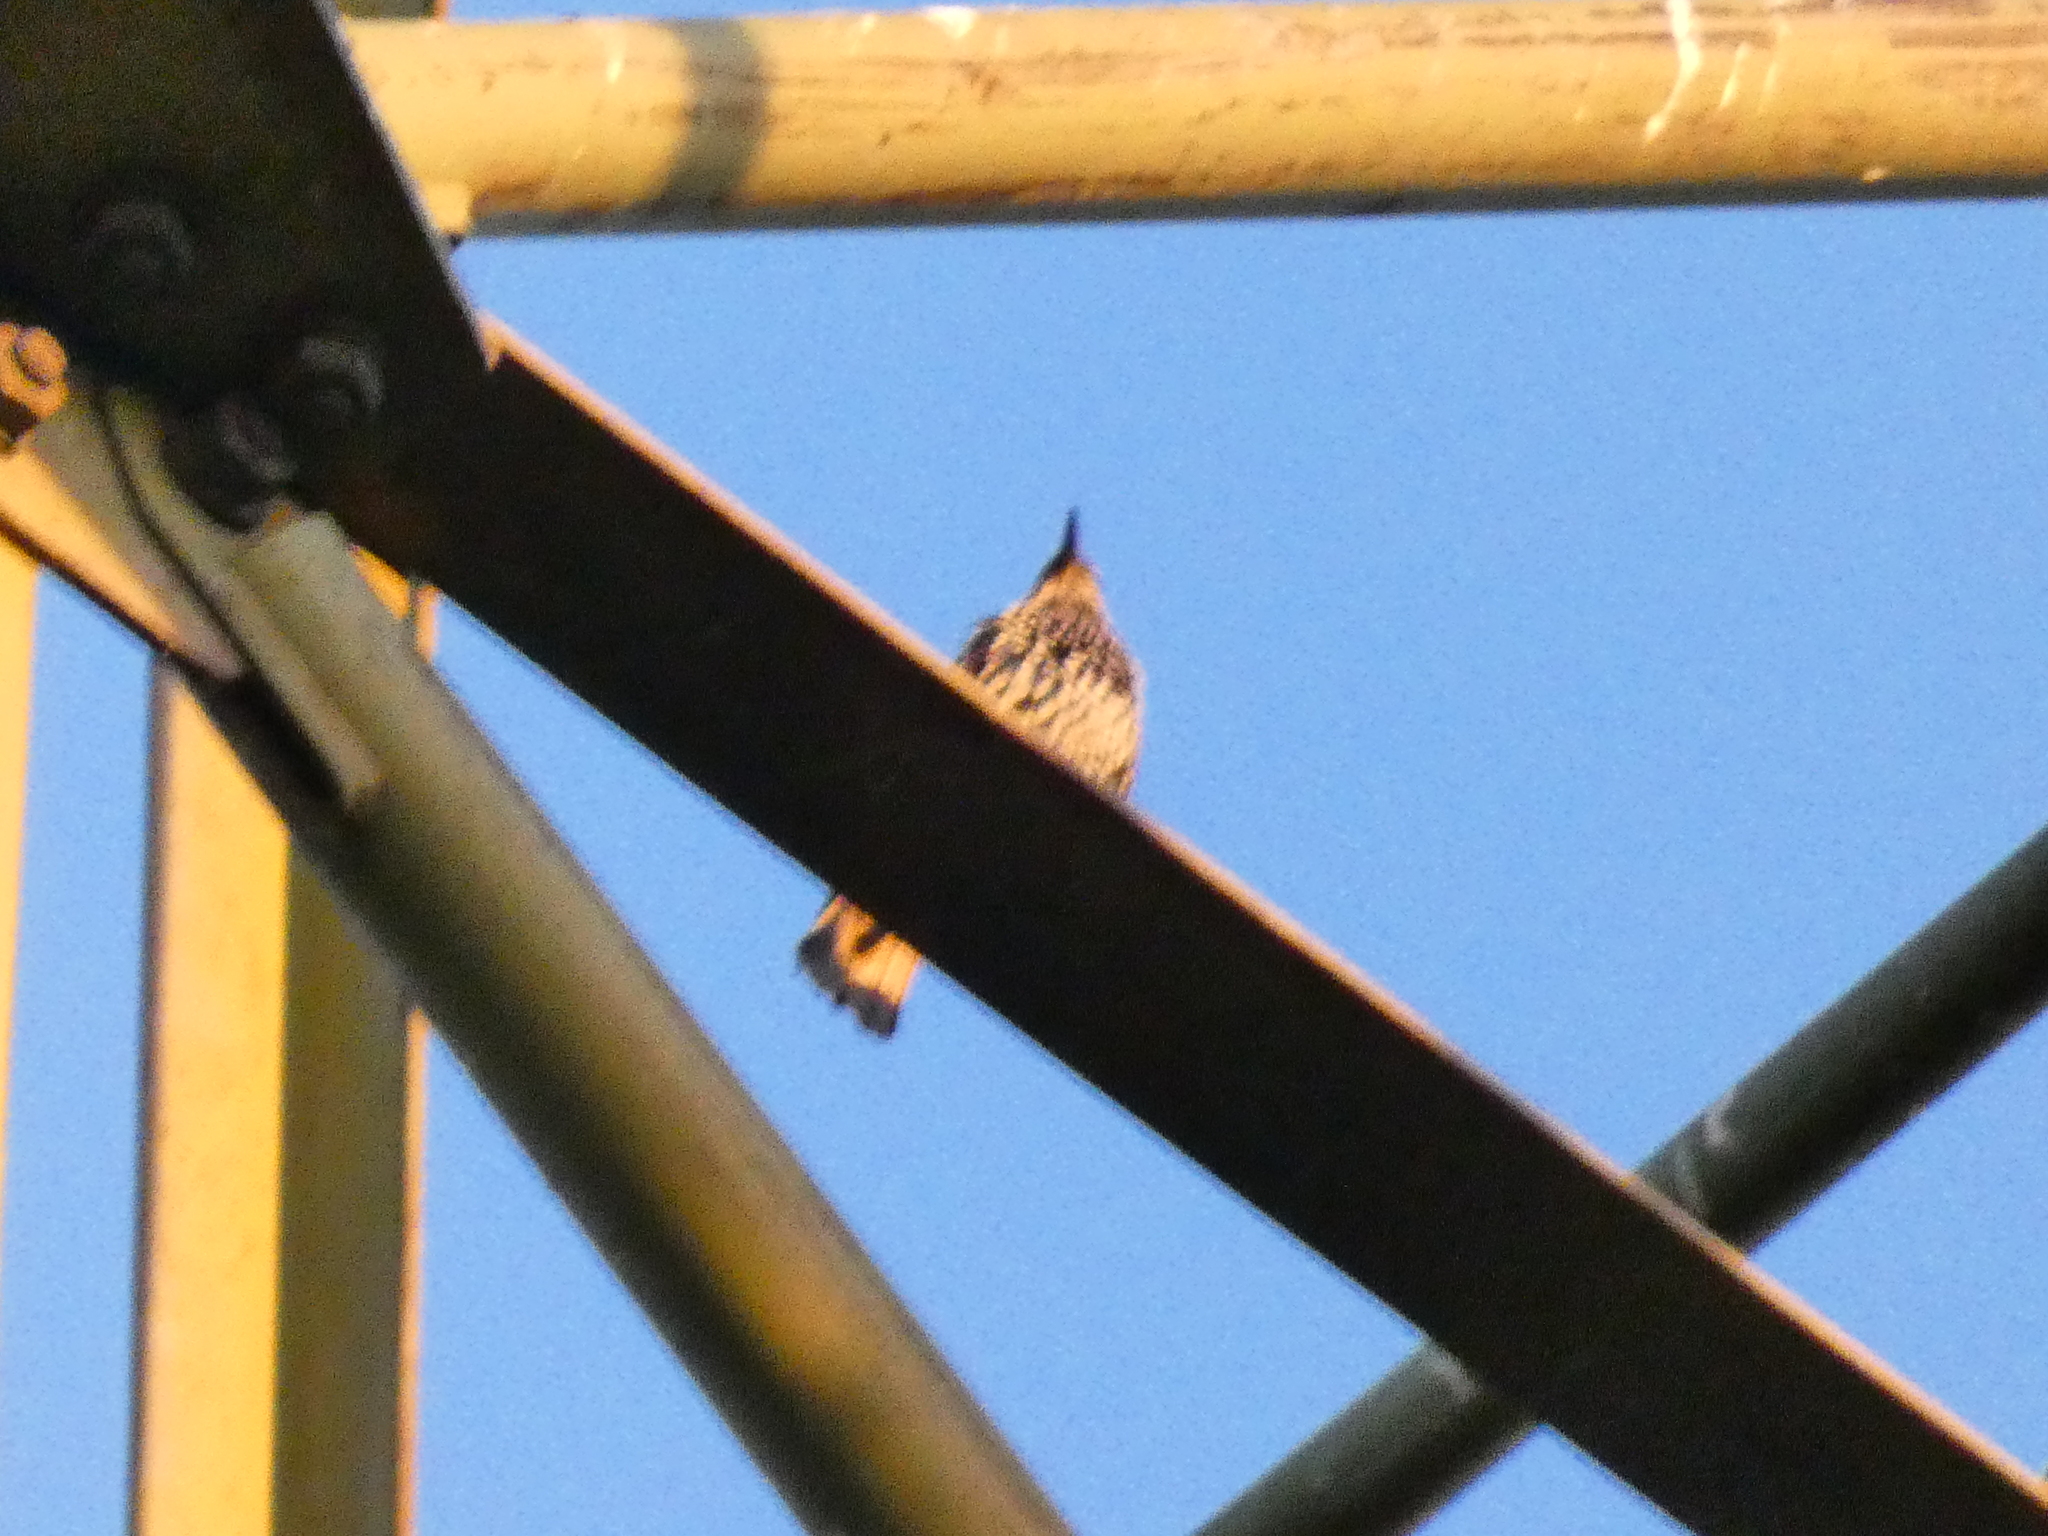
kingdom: Animalia
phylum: Chordata
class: Aves
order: Passeriformes
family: Sturnidae
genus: Sturnus
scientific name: Sturnus vulgaris
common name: Common starling
